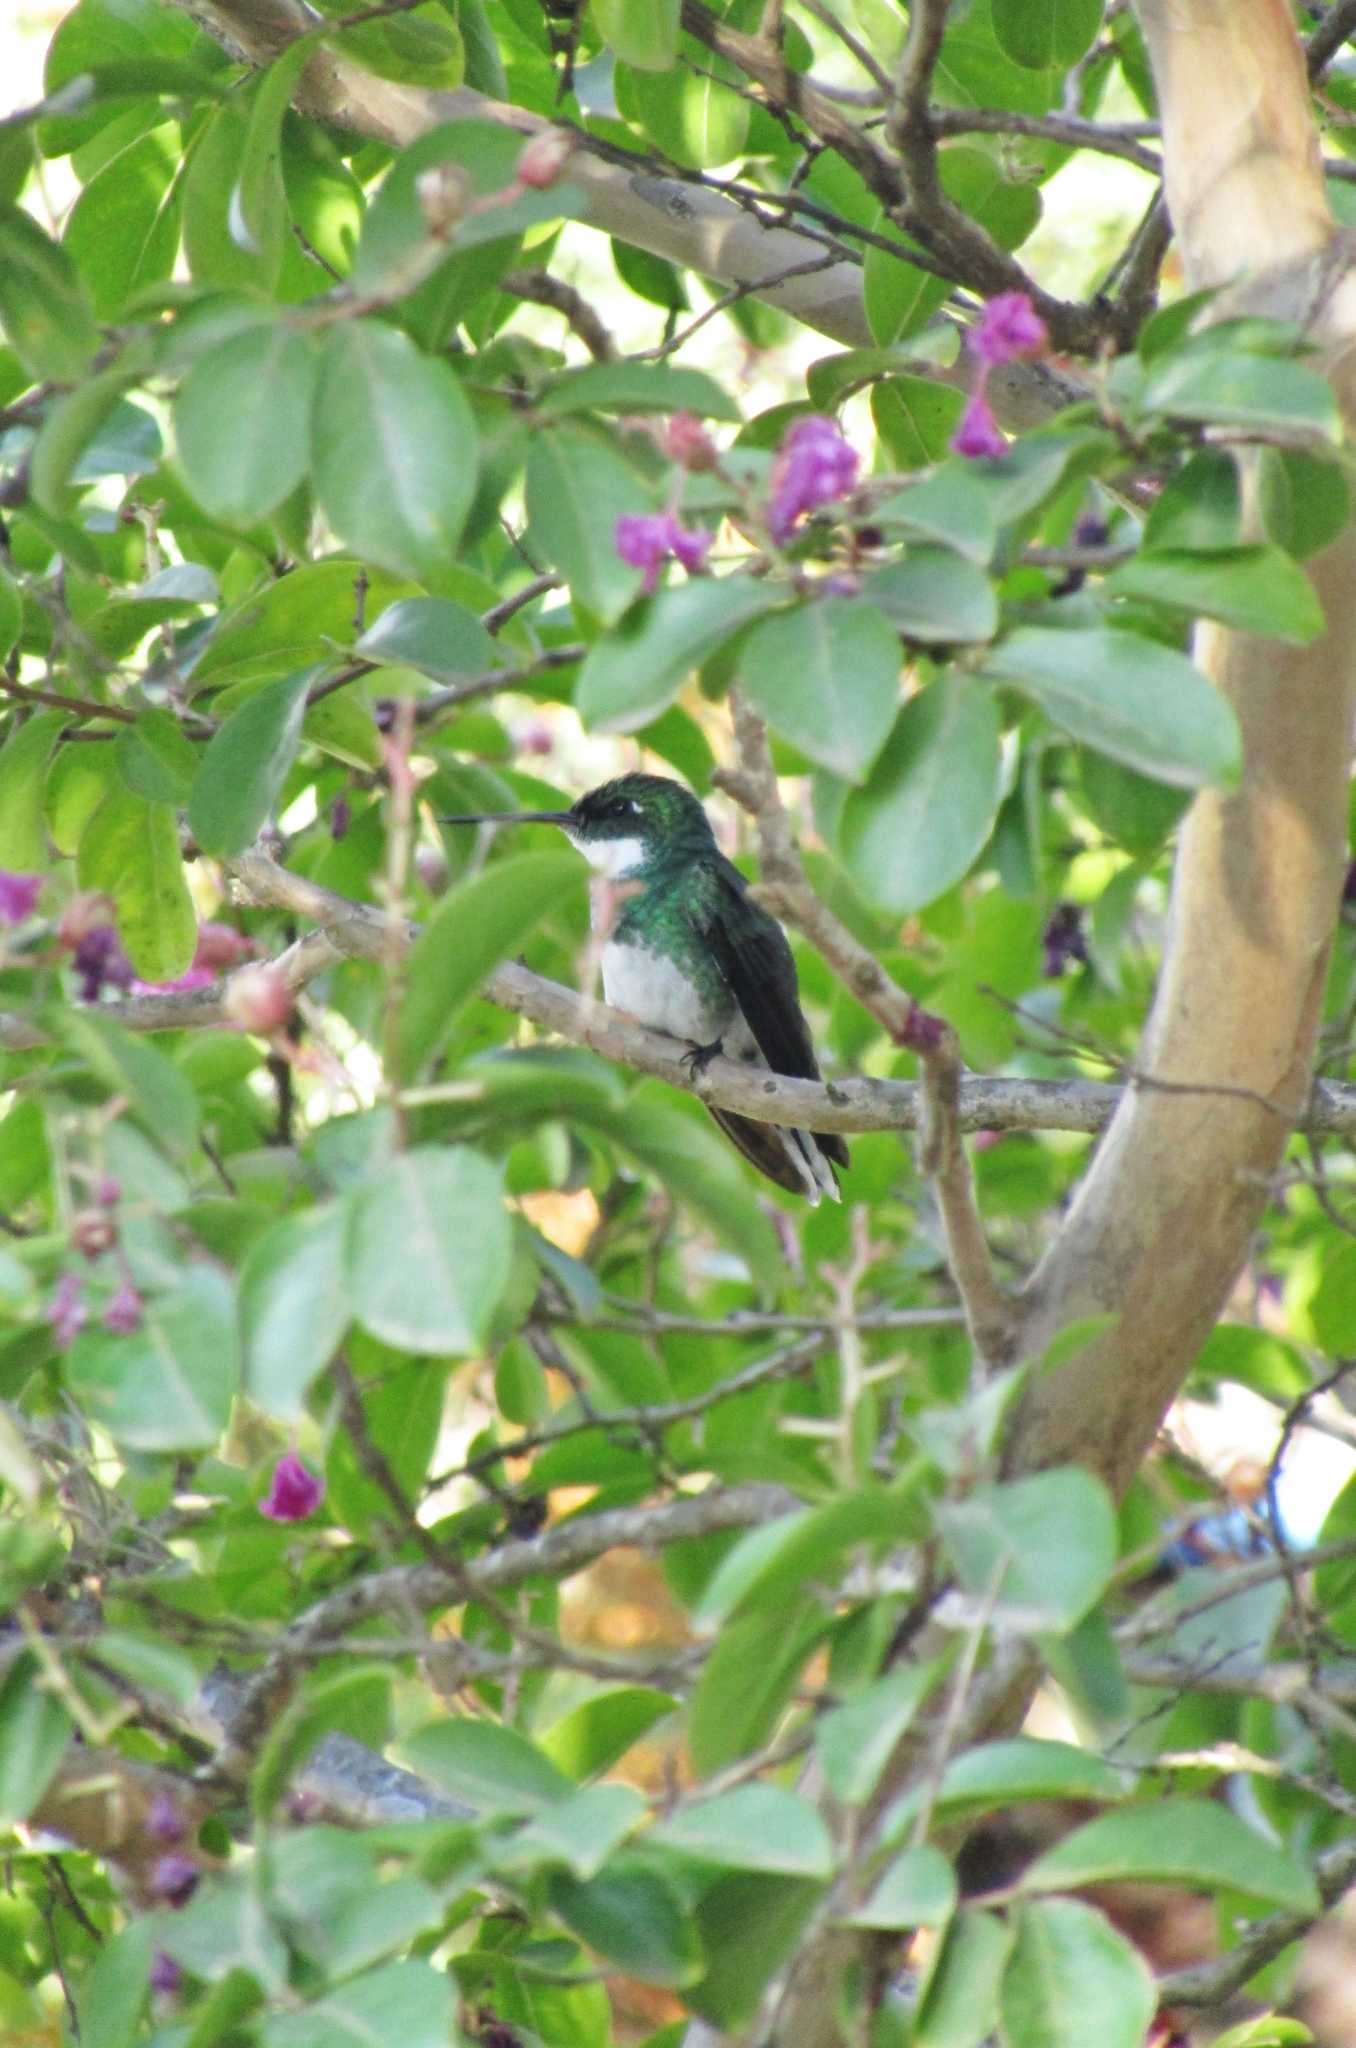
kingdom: Animalia
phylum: Chordata
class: Aves
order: Apodiformes
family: Trochilidae
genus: Leucochloris
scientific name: Leucochloris albicollis
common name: White-throated hummingbird
